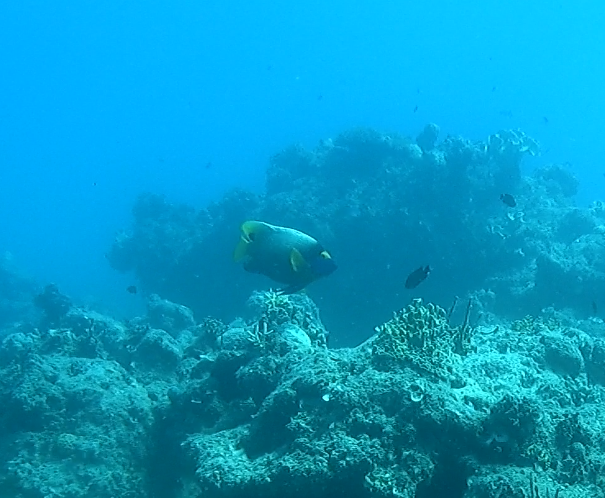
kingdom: Animalia
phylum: Chordata
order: Perciformes
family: Pomacanthidae
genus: Pomacanthus
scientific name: Pomacanthus xanthometopon
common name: Yellow-faced angelfish
